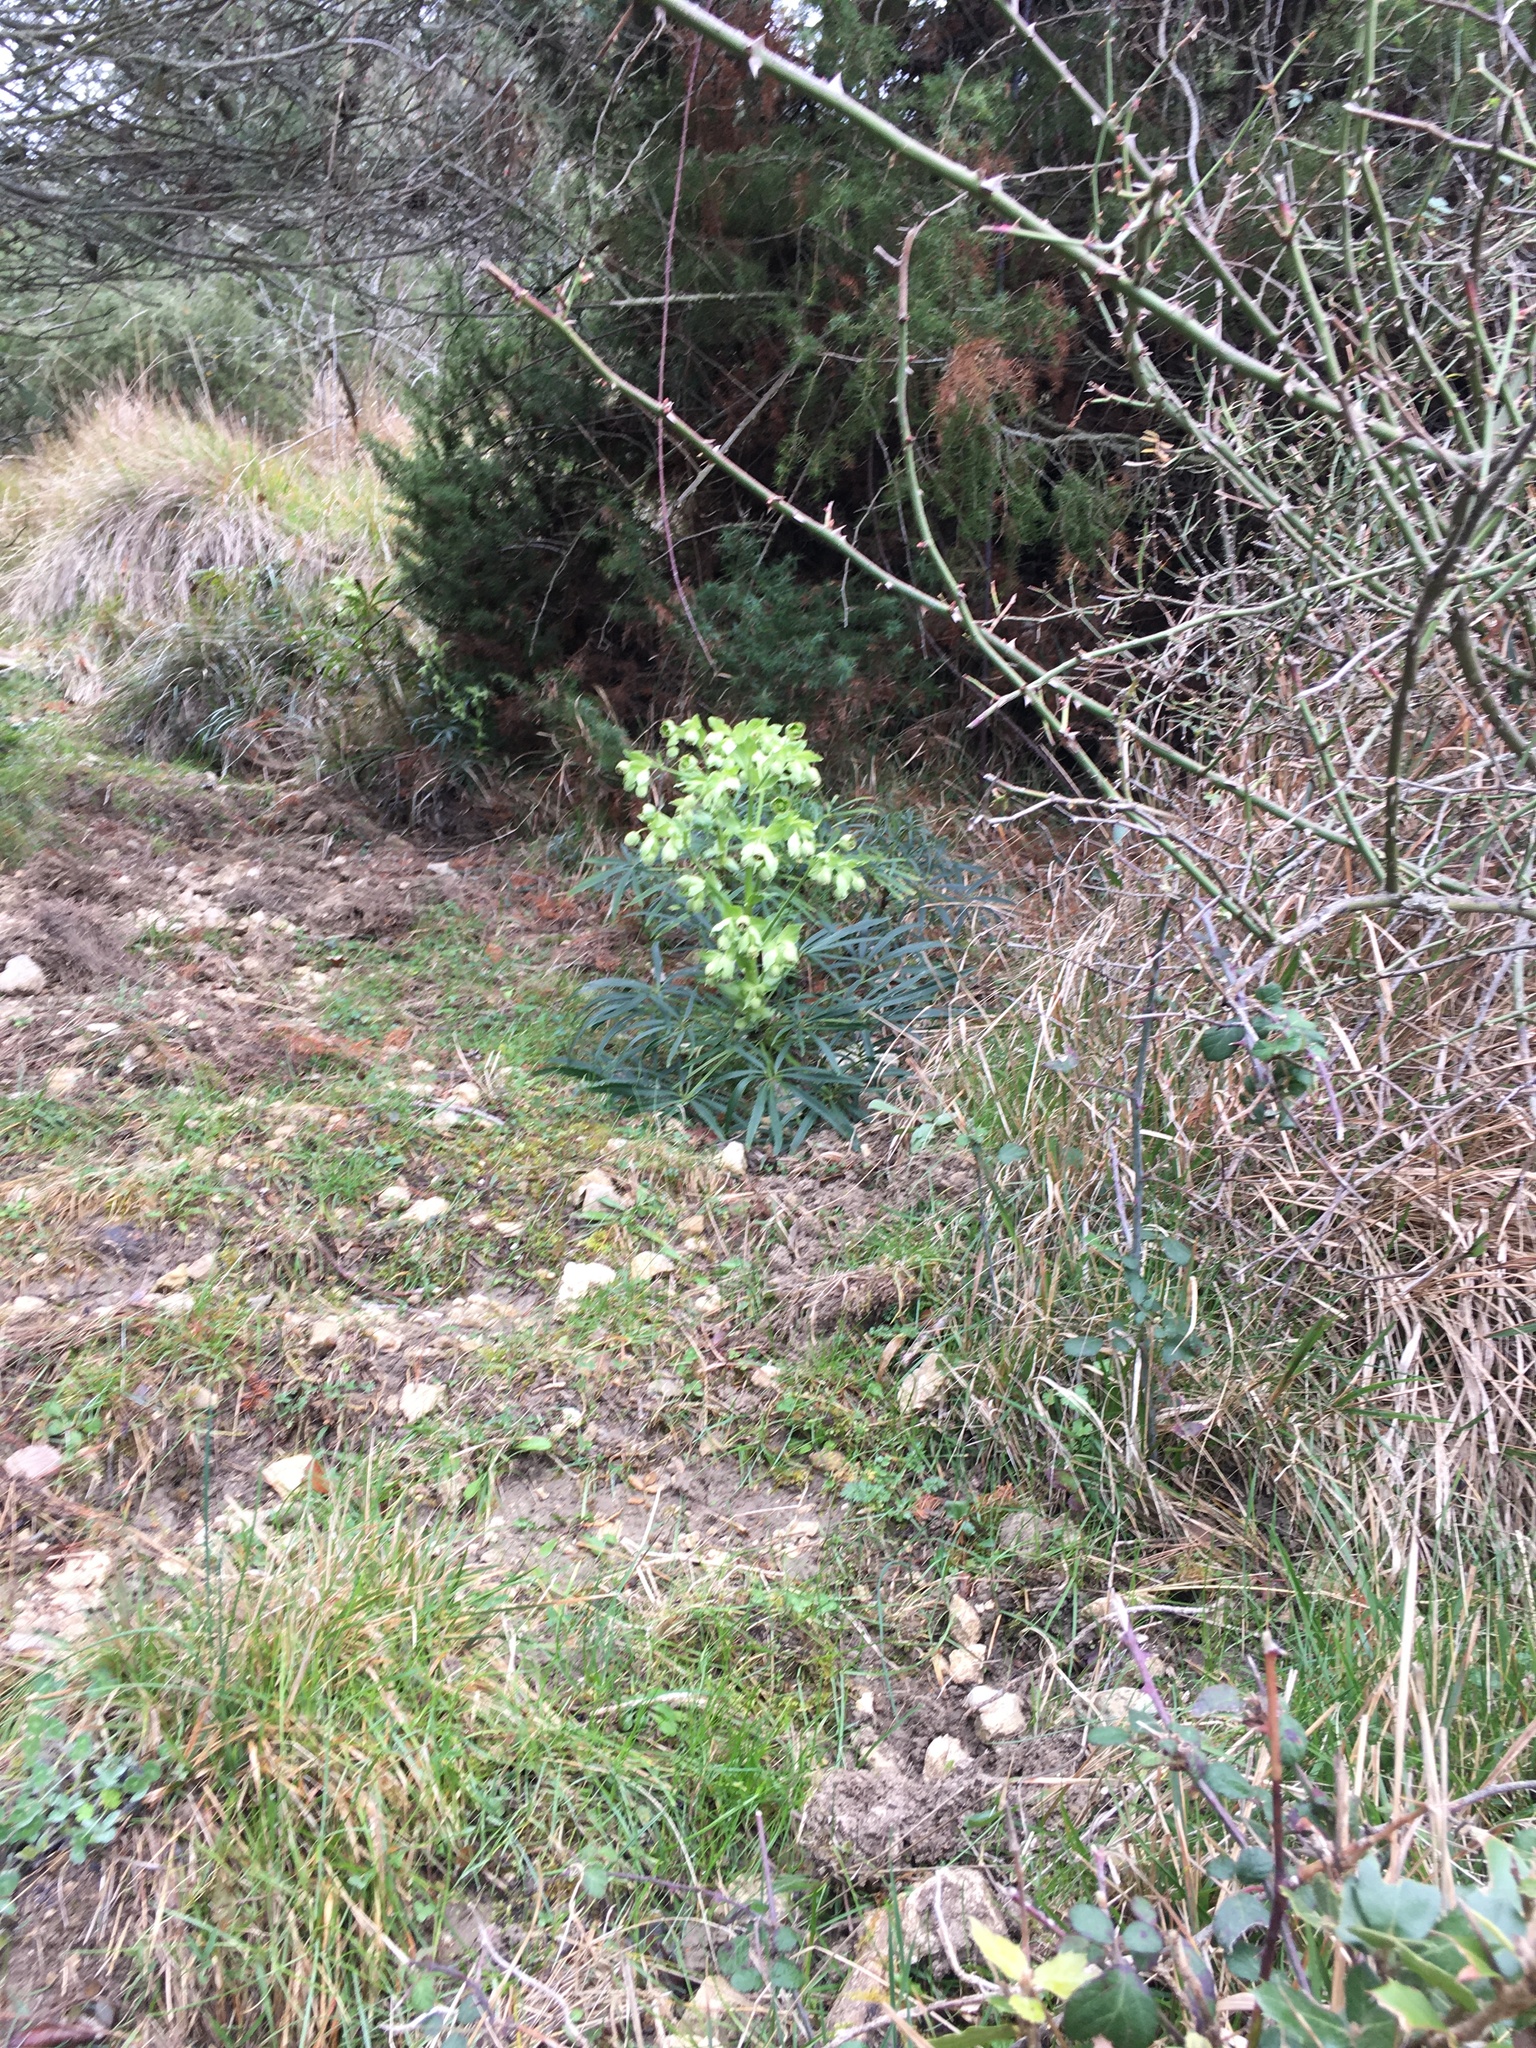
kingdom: Plantae
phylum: Tracheophyta
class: Magnoliopsida
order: Ranunculales
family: Ranunculaceae
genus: Helleborus
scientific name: Helleborus foetidus
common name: Stinking hellebore
